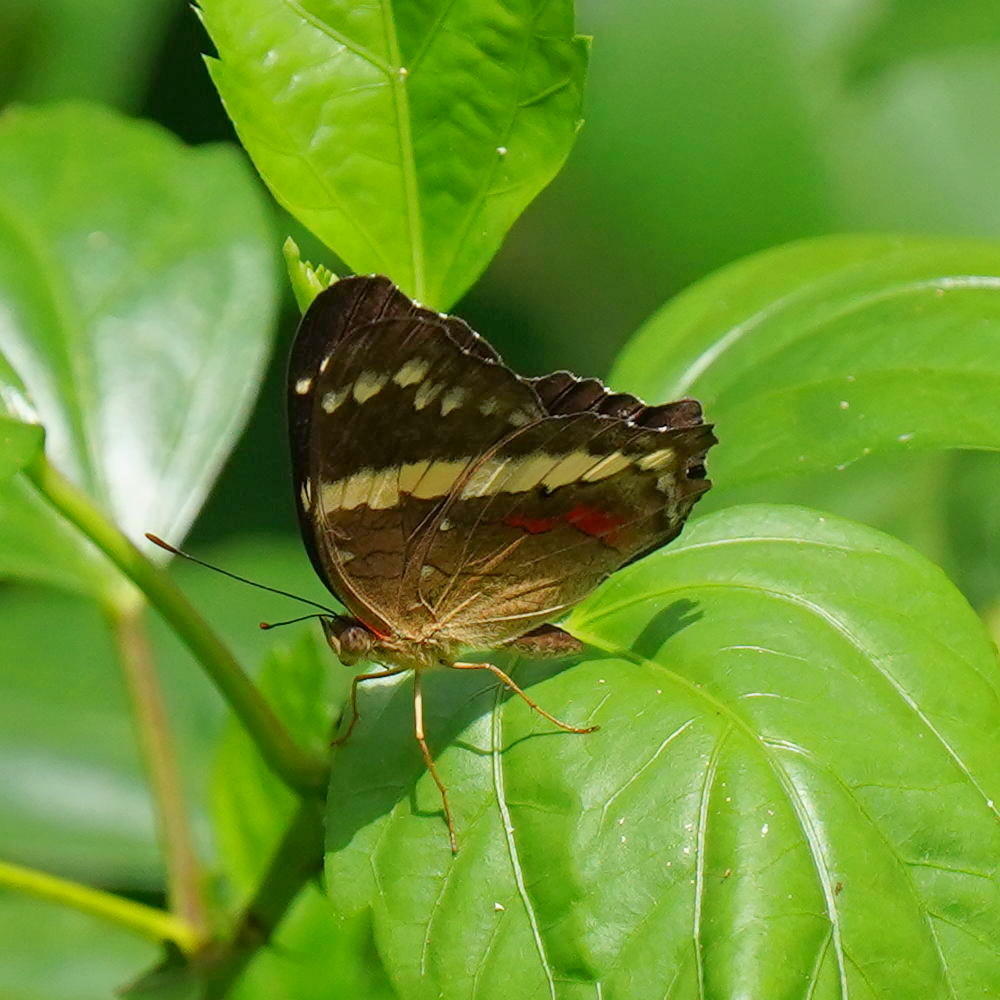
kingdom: Animalia
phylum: Arthropoda
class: Insecta
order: Lepidoptera
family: Nymphalidae
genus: Anartia
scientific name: Anartia fatima
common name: Banded peacock
